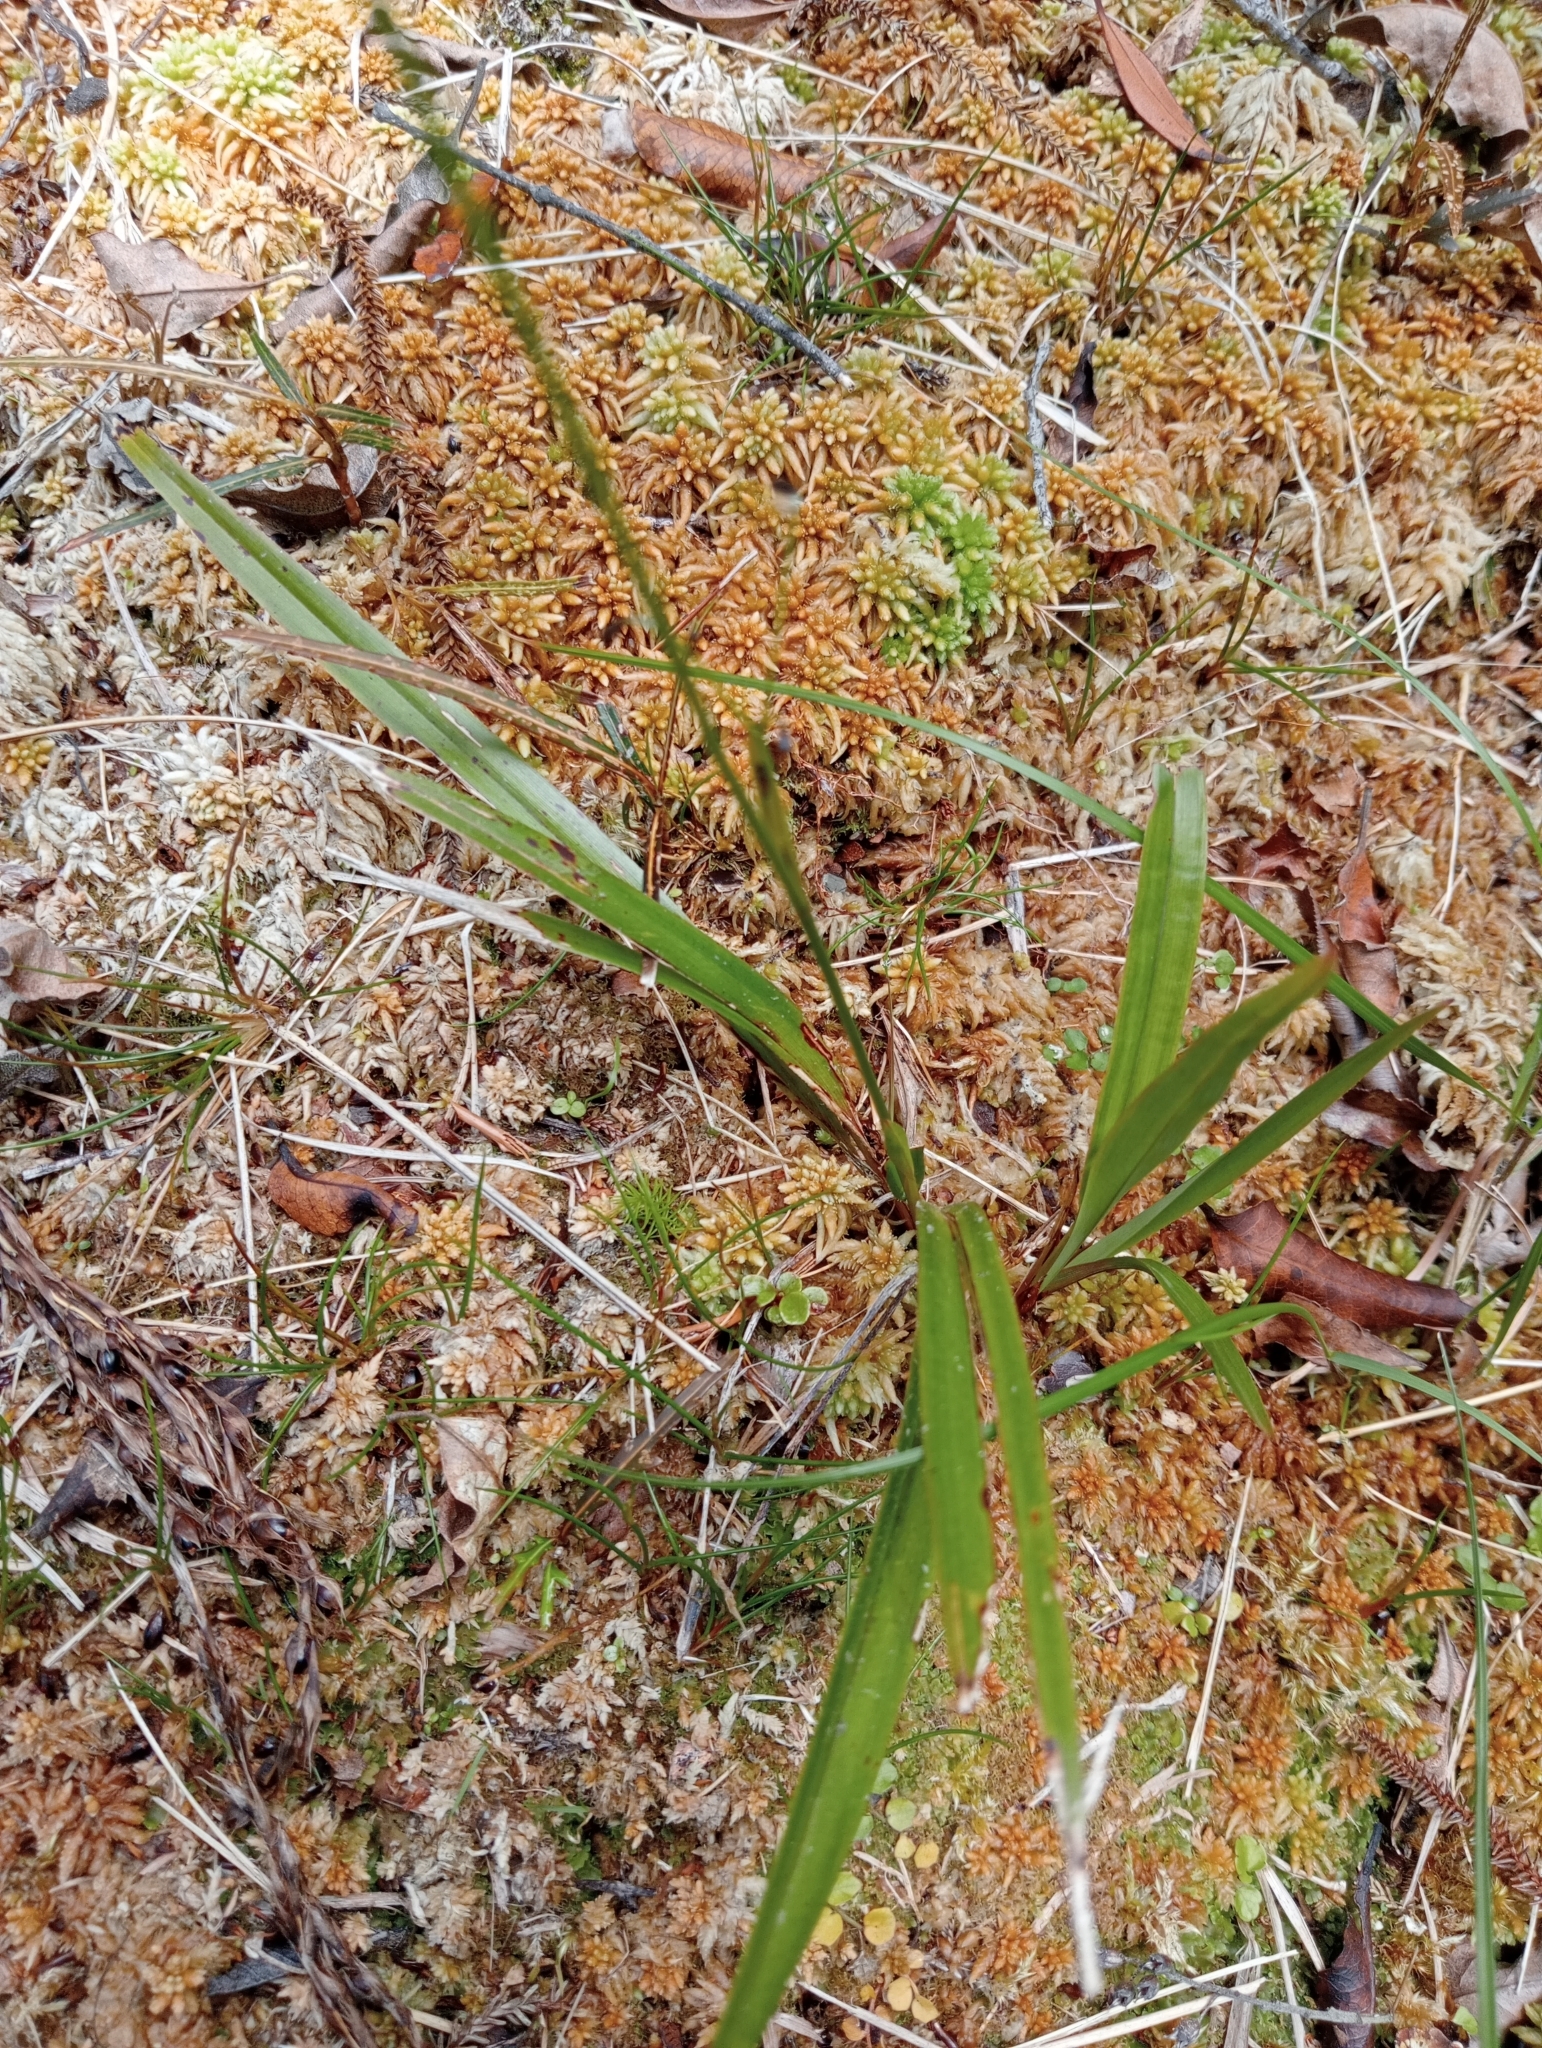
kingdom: Plantae
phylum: Tracheophyta
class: Liliopsida
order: Asparagales
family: Asphodelaceae
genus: Dianella
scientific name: Dianella nigra
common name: New zealand-blueberry
